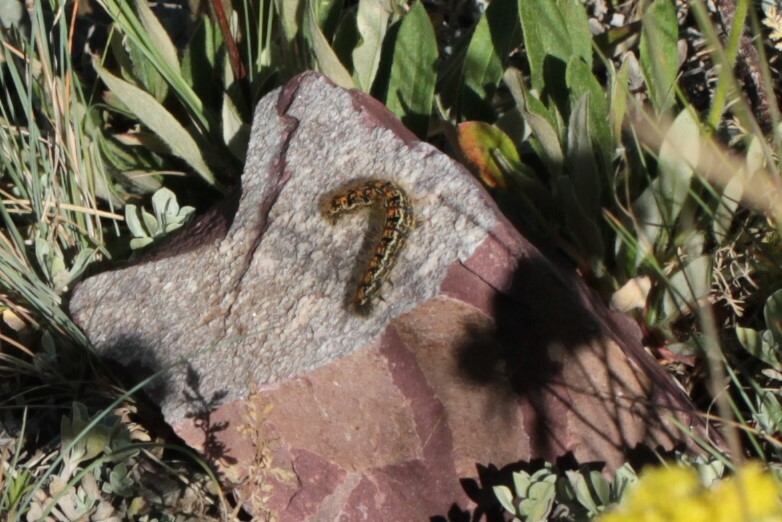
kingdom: Animalia
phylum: Arthropoda
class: Insecta
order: Lepidoptera
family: Lasiocampidae
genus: Malacosoma
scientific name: Malacosoma californica
